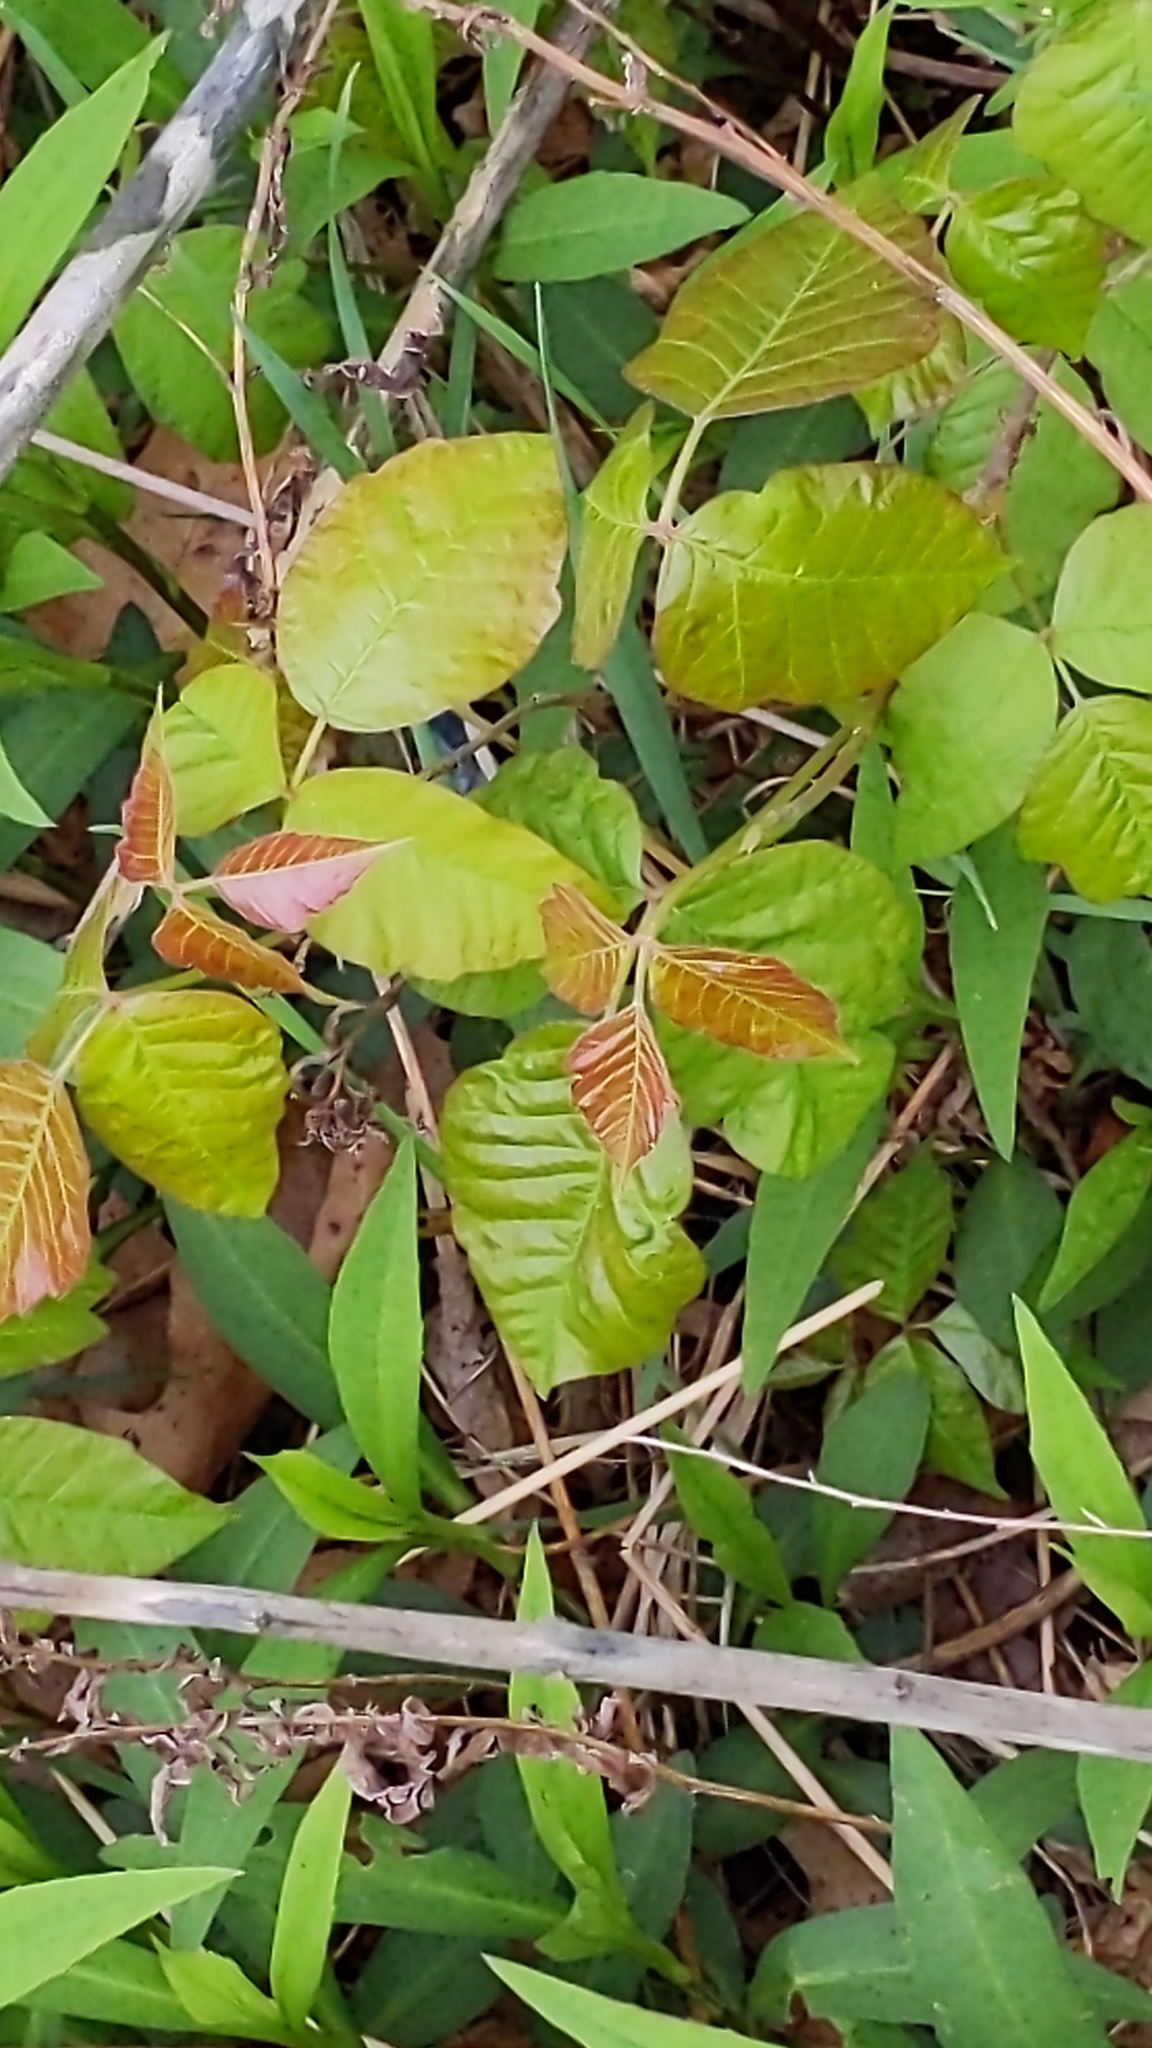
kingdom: Plantae
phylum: Tracheophyta
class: Magnoliopsida
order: Sapindales
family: Anacardiaceae
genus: Toxicodendron
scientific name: Toxicodendron radicans
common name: Poison ivy
